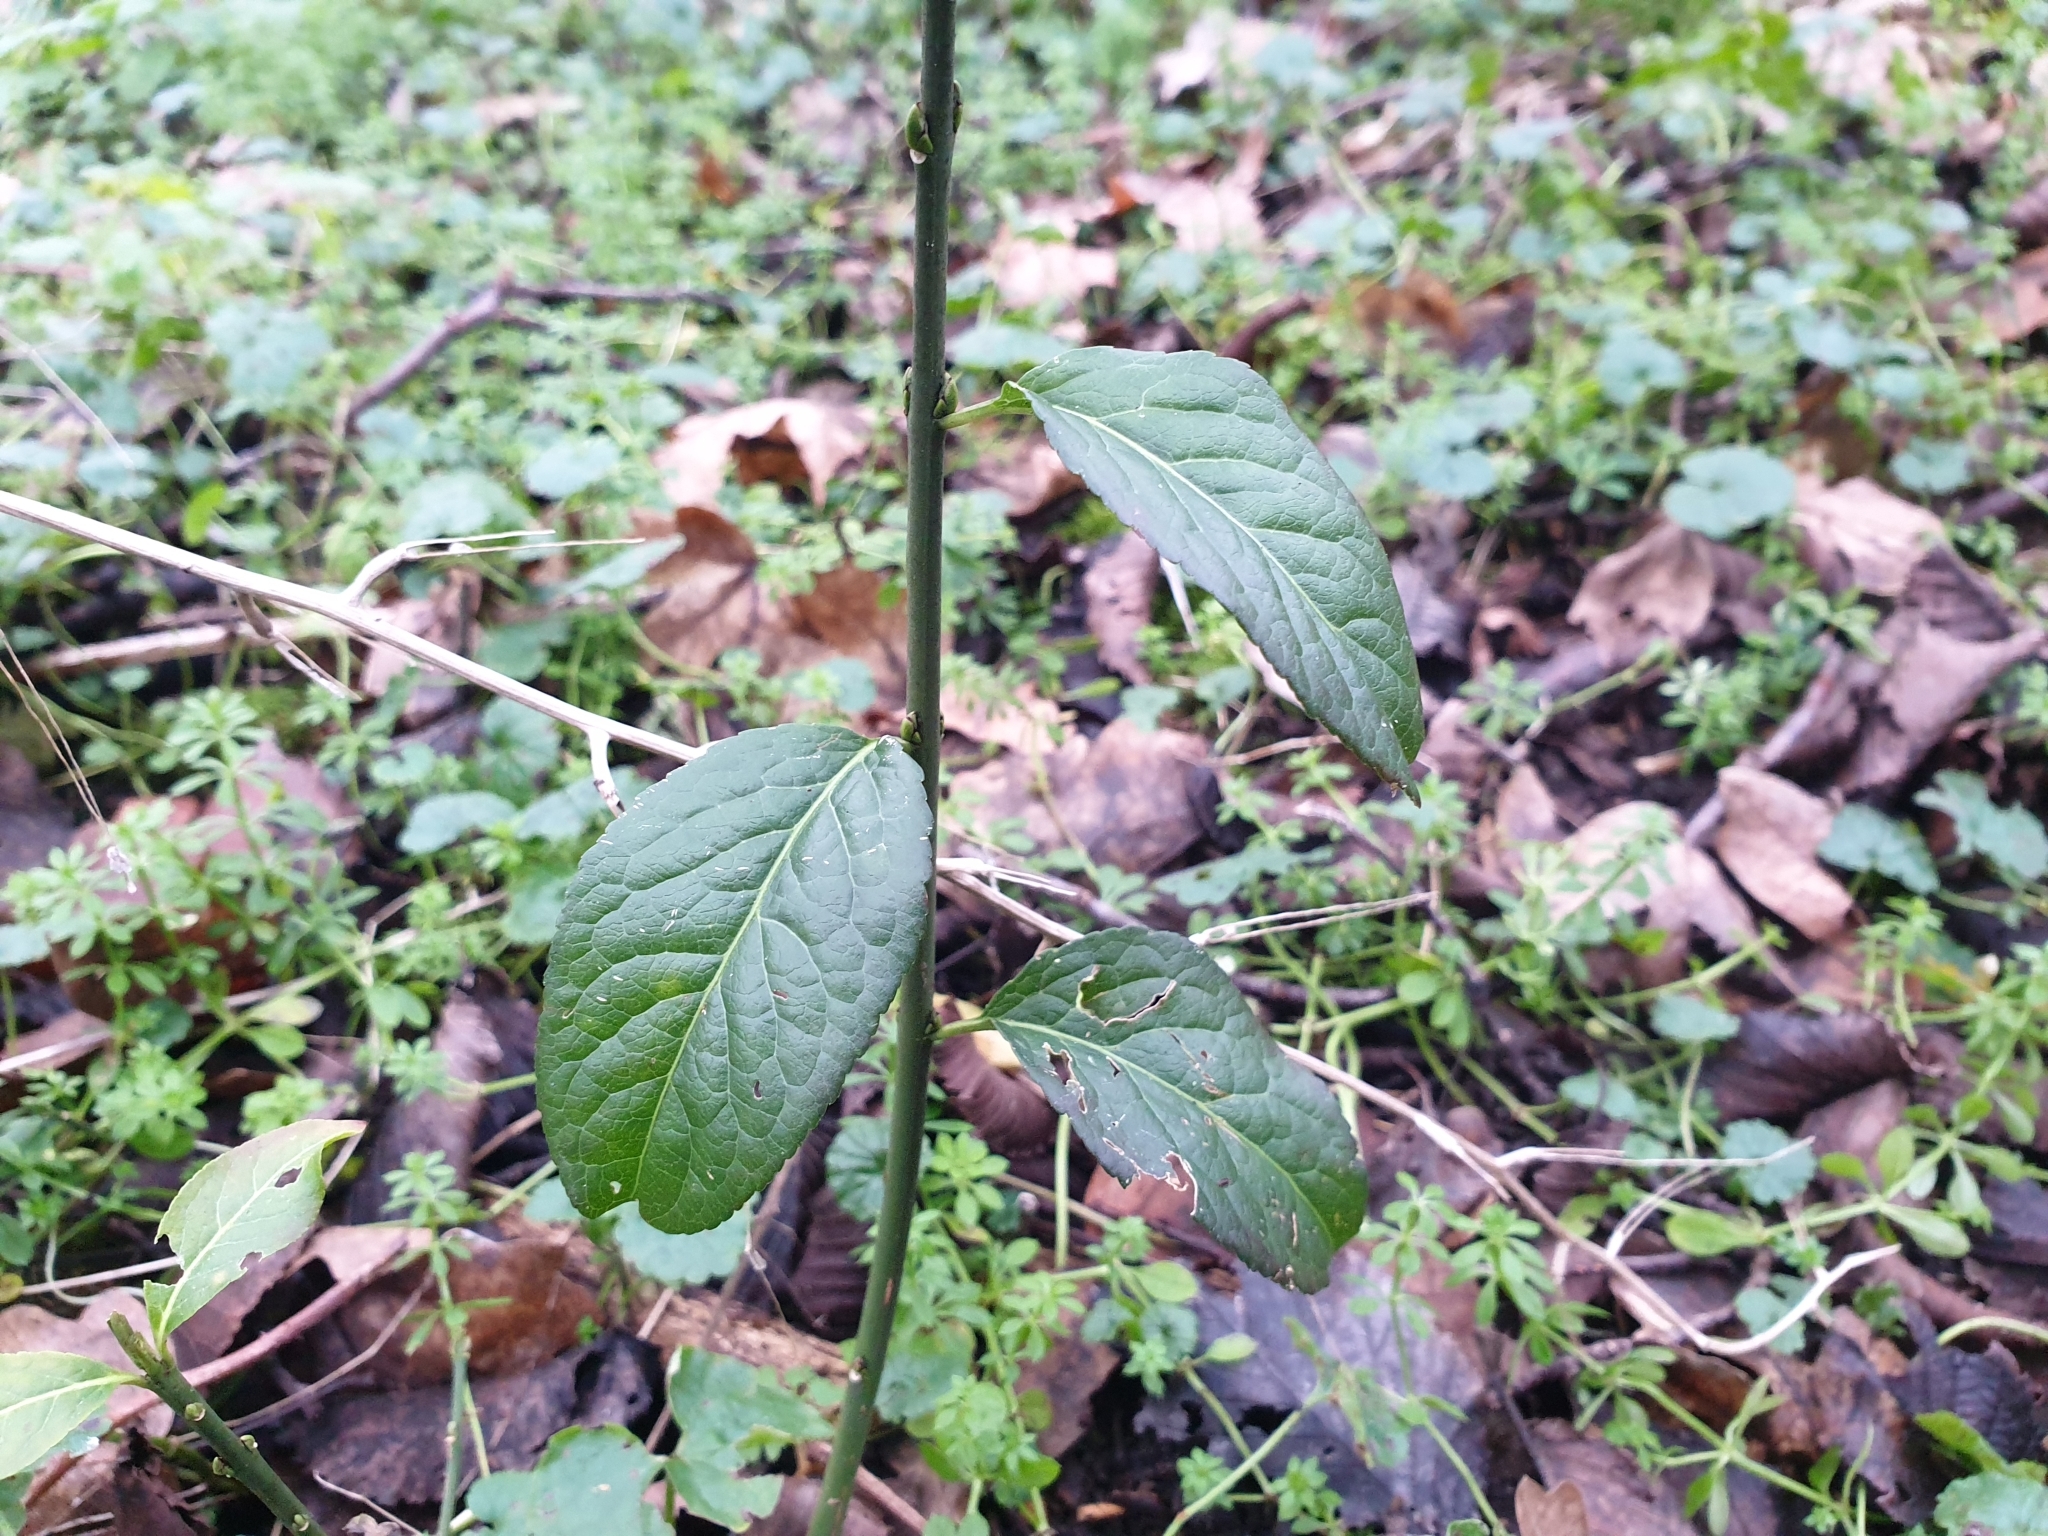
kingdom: Plantae
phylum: Tracheophyta
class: Magnoliopsida
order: Celastrales
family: Celastraceae
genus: Euonymus
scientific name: Euonymus europaeus
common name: Spindle
